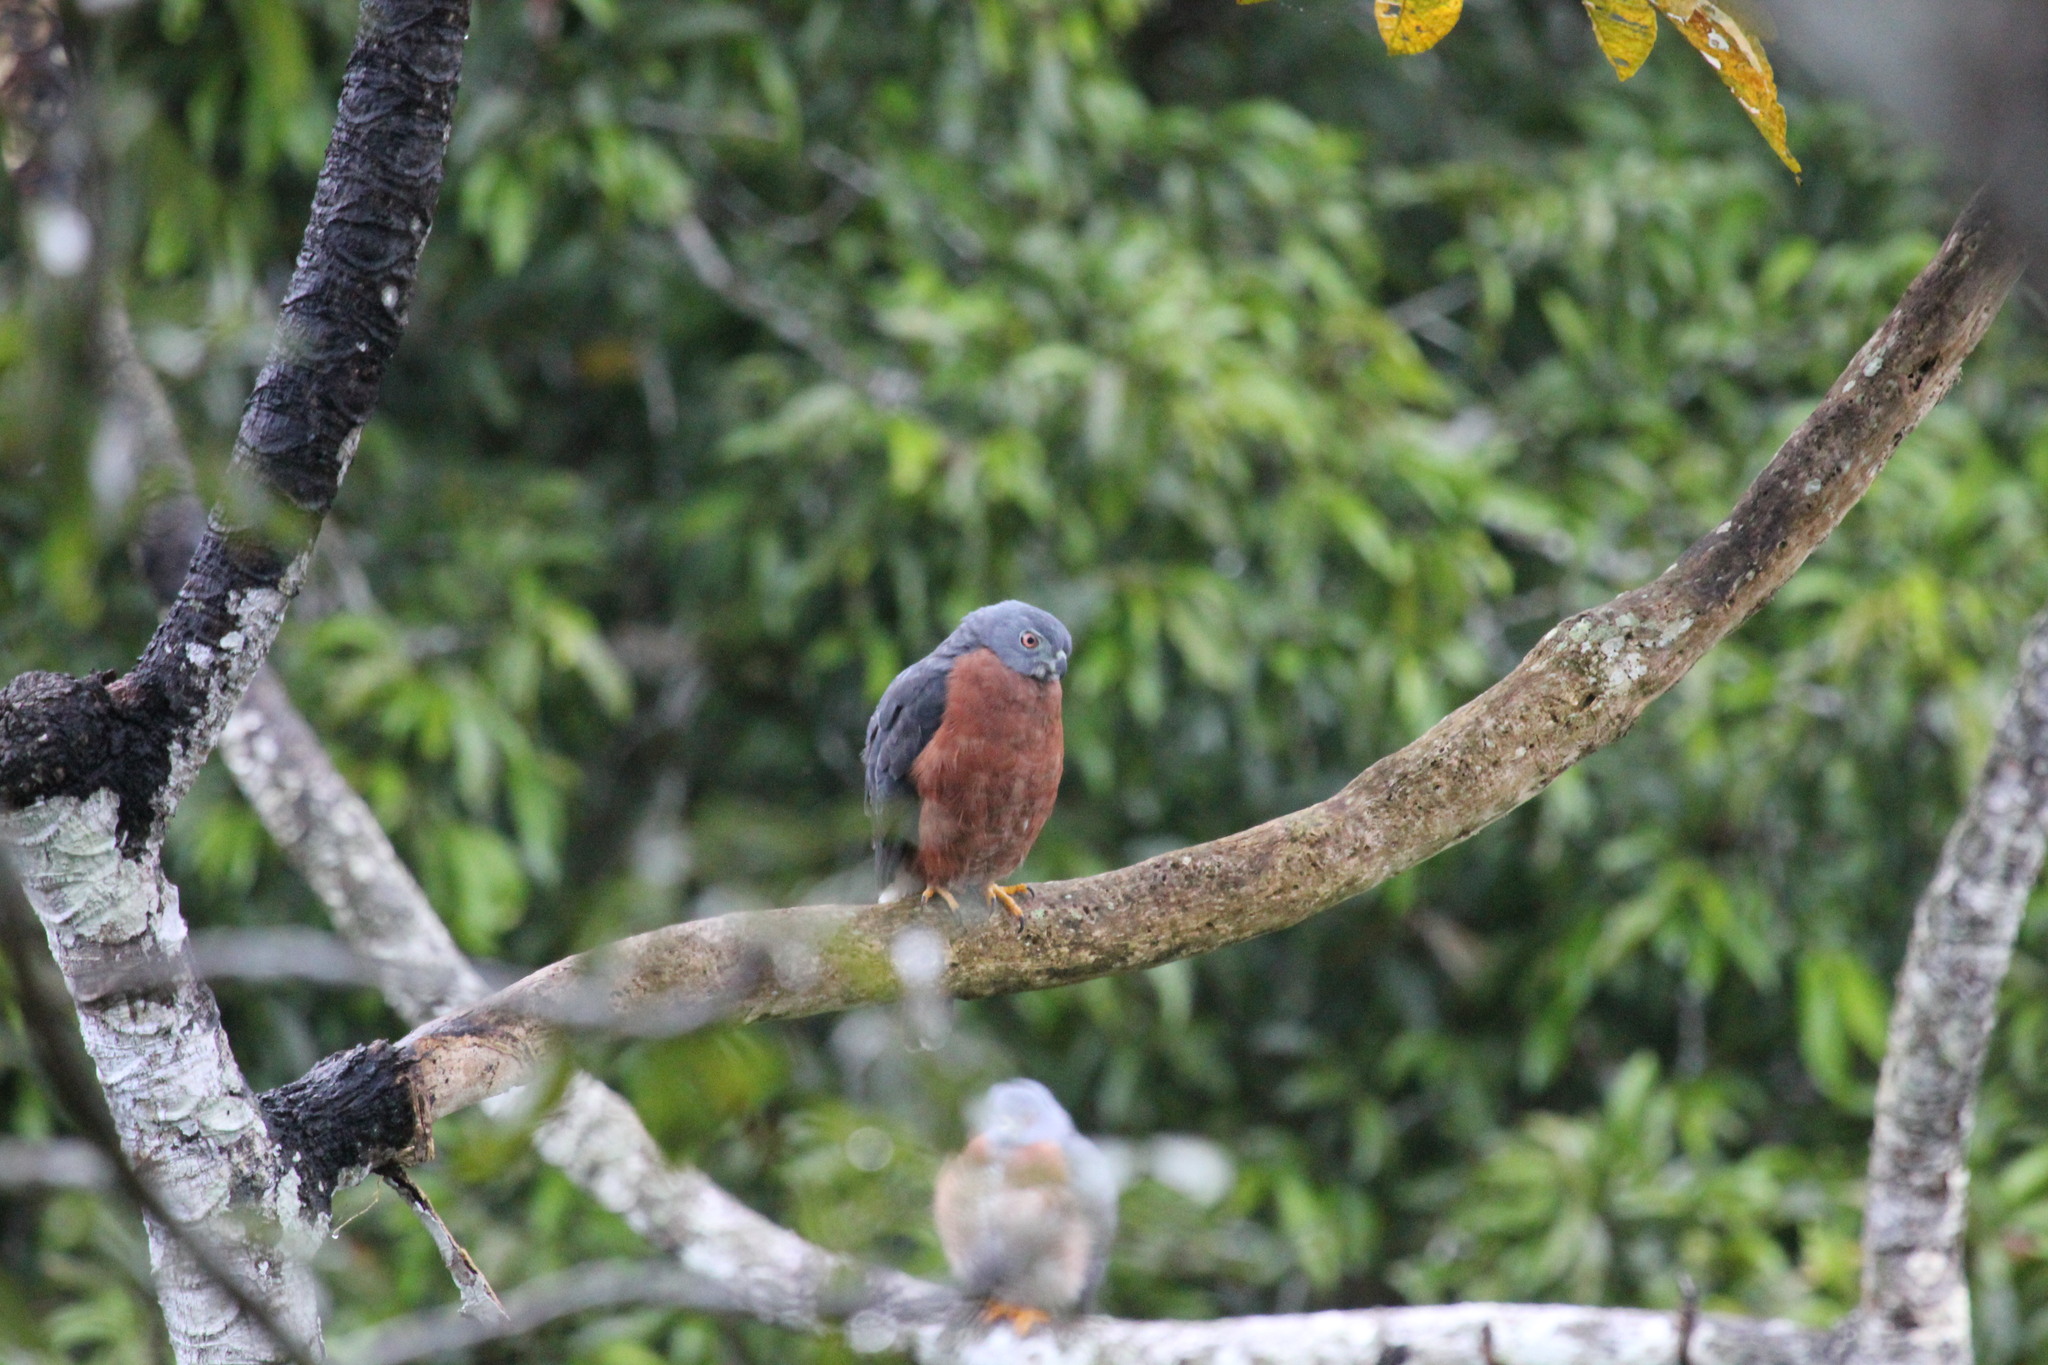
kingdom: Animalia
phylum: Chordata
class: Aves
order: Accipitriformes
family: Accipitridae
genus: Harpagus
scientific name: Harpagus bidentatus
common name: Double-toothed kite
